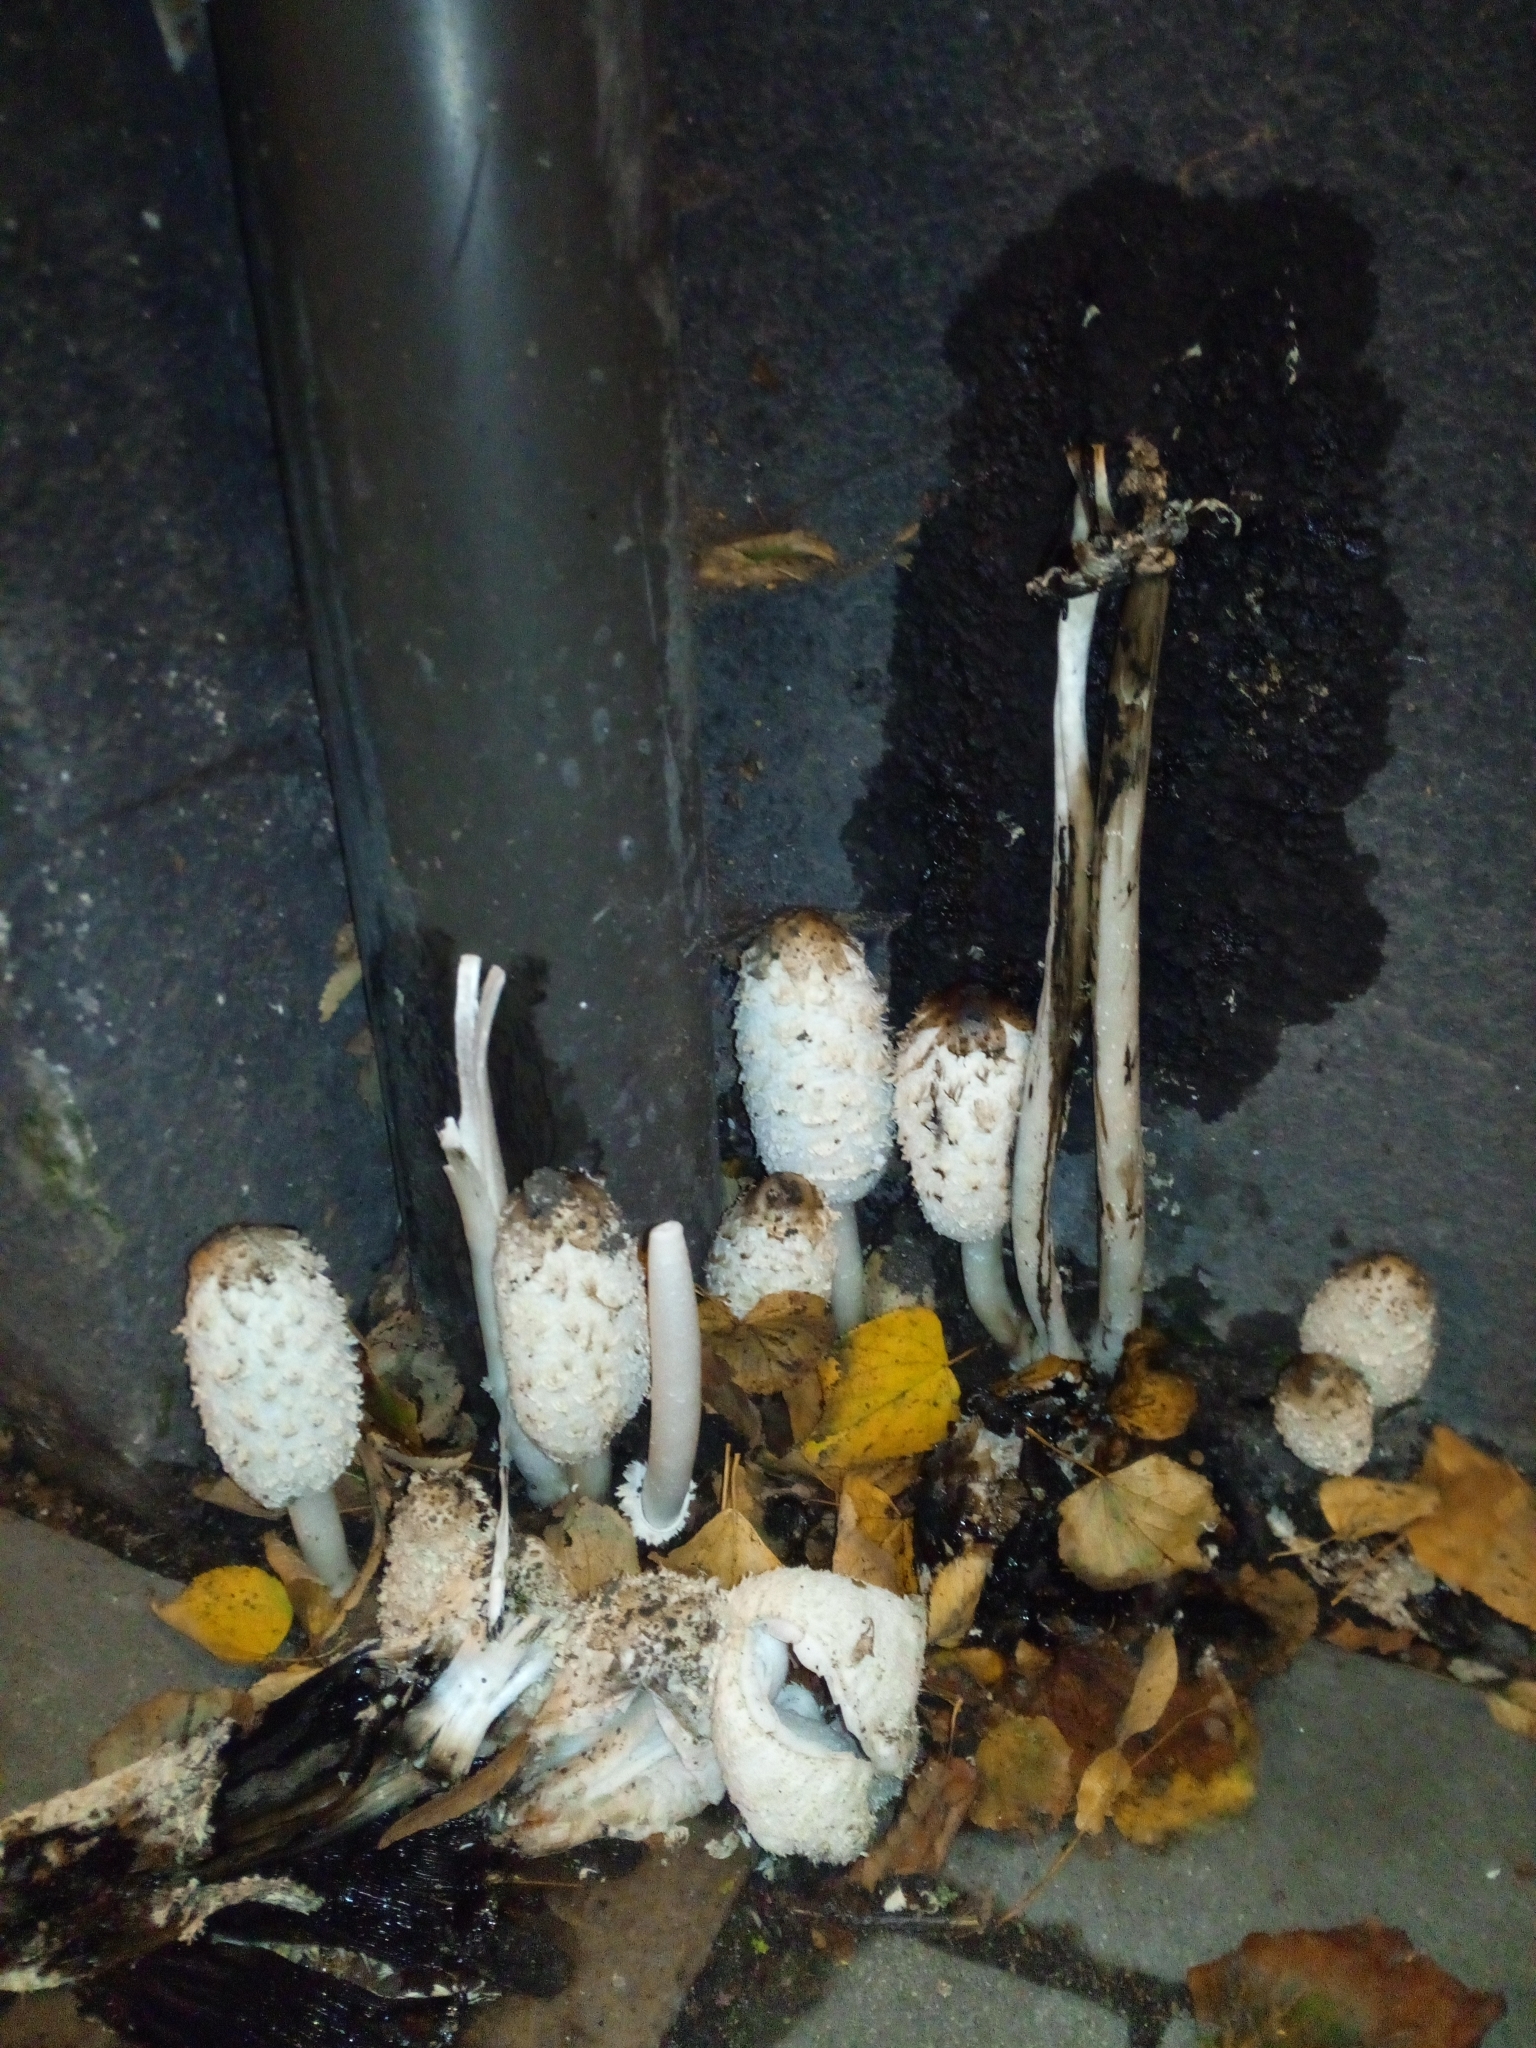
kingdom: Fungi
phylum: Basidiomycota
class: Agaricomycetes
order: Agaricales
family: Agaricaceae
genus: Coprinus
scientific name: Coprinus comatus
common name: Lawyer's wig
